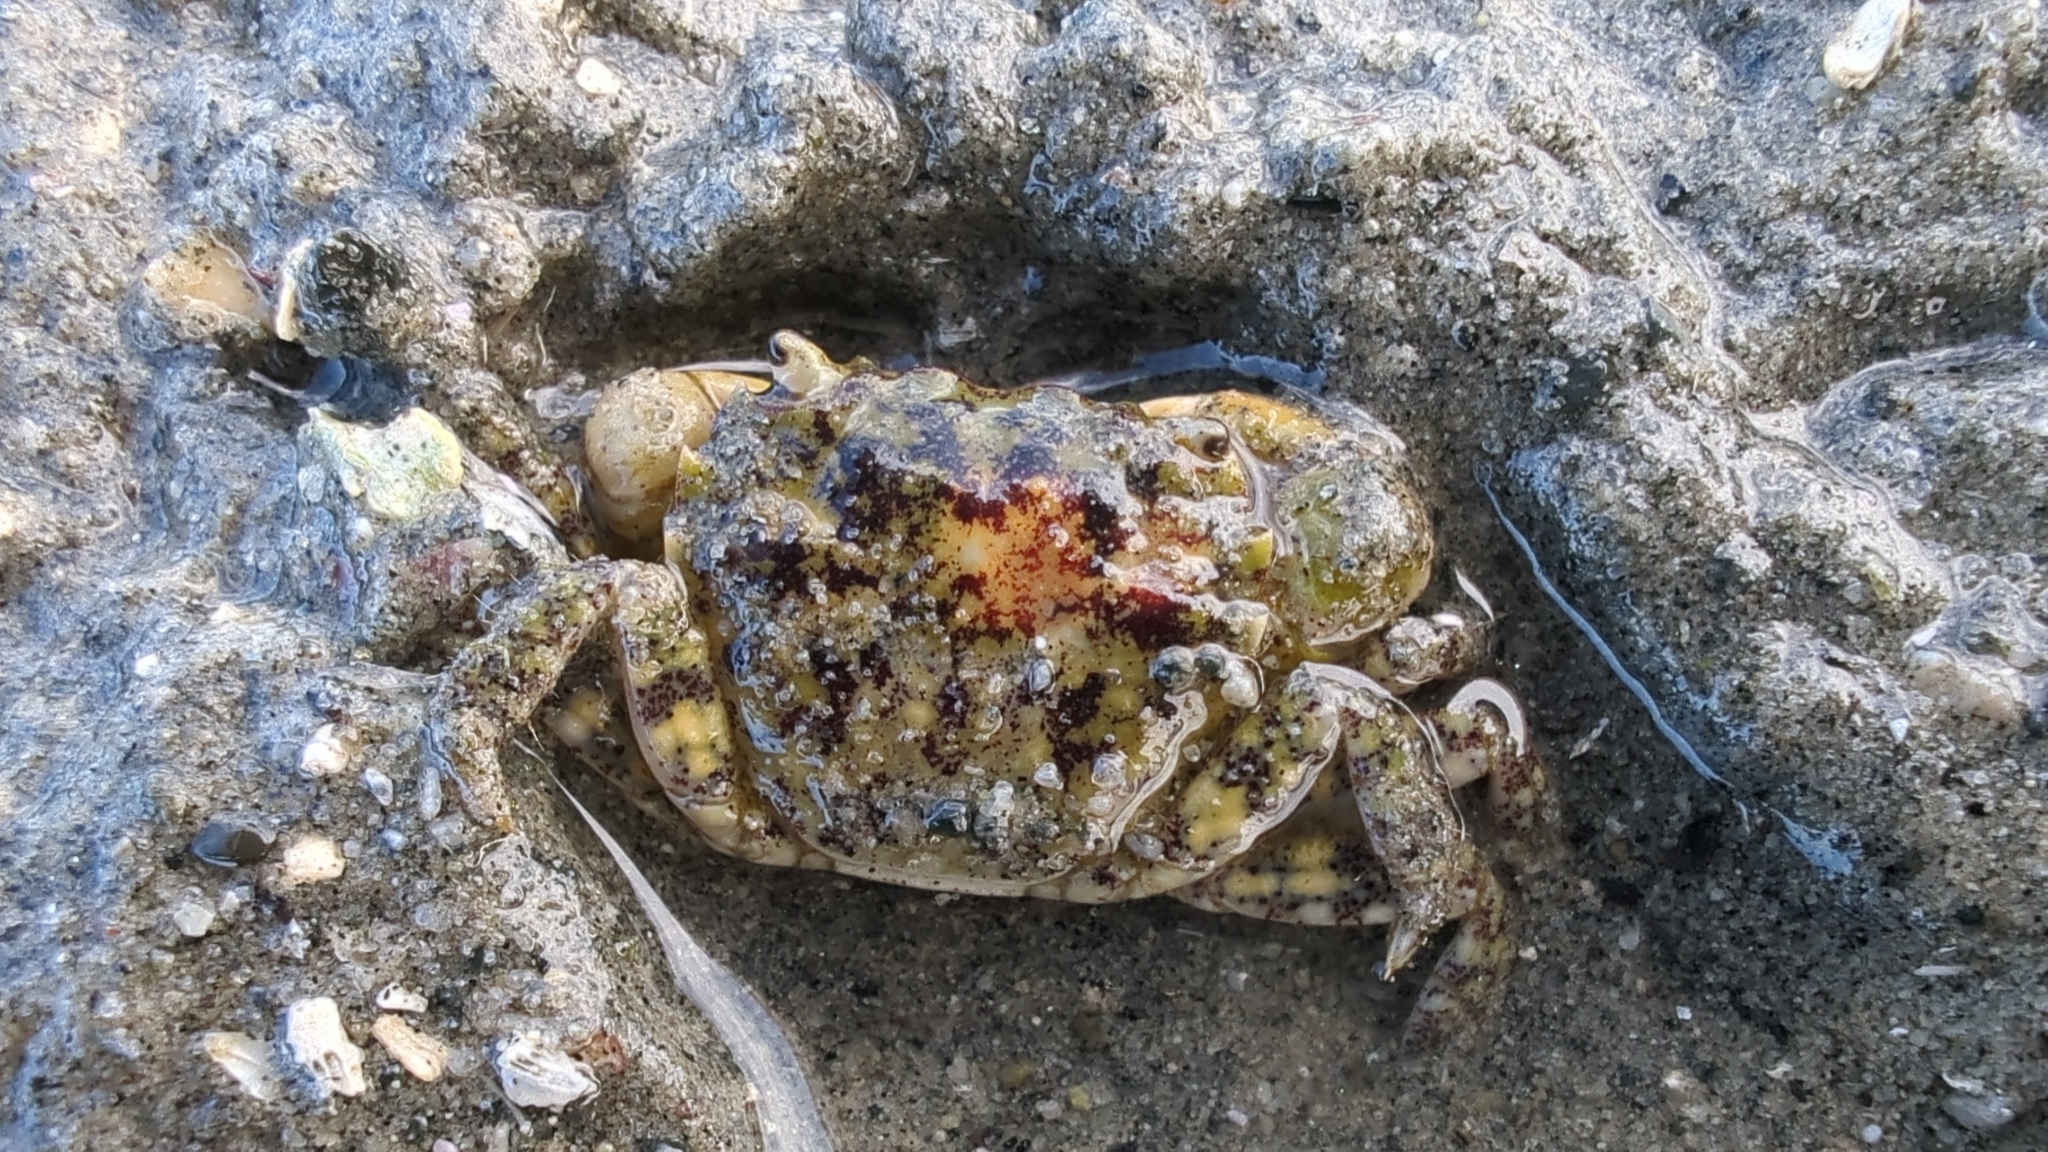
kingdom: Animalia
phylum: Arthropoda
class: Malacostraca
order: Decapoda
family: Varunidae
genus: Hemigrapsus
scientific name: Hemigrapsus oregonensis
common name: Yellow shore crab
